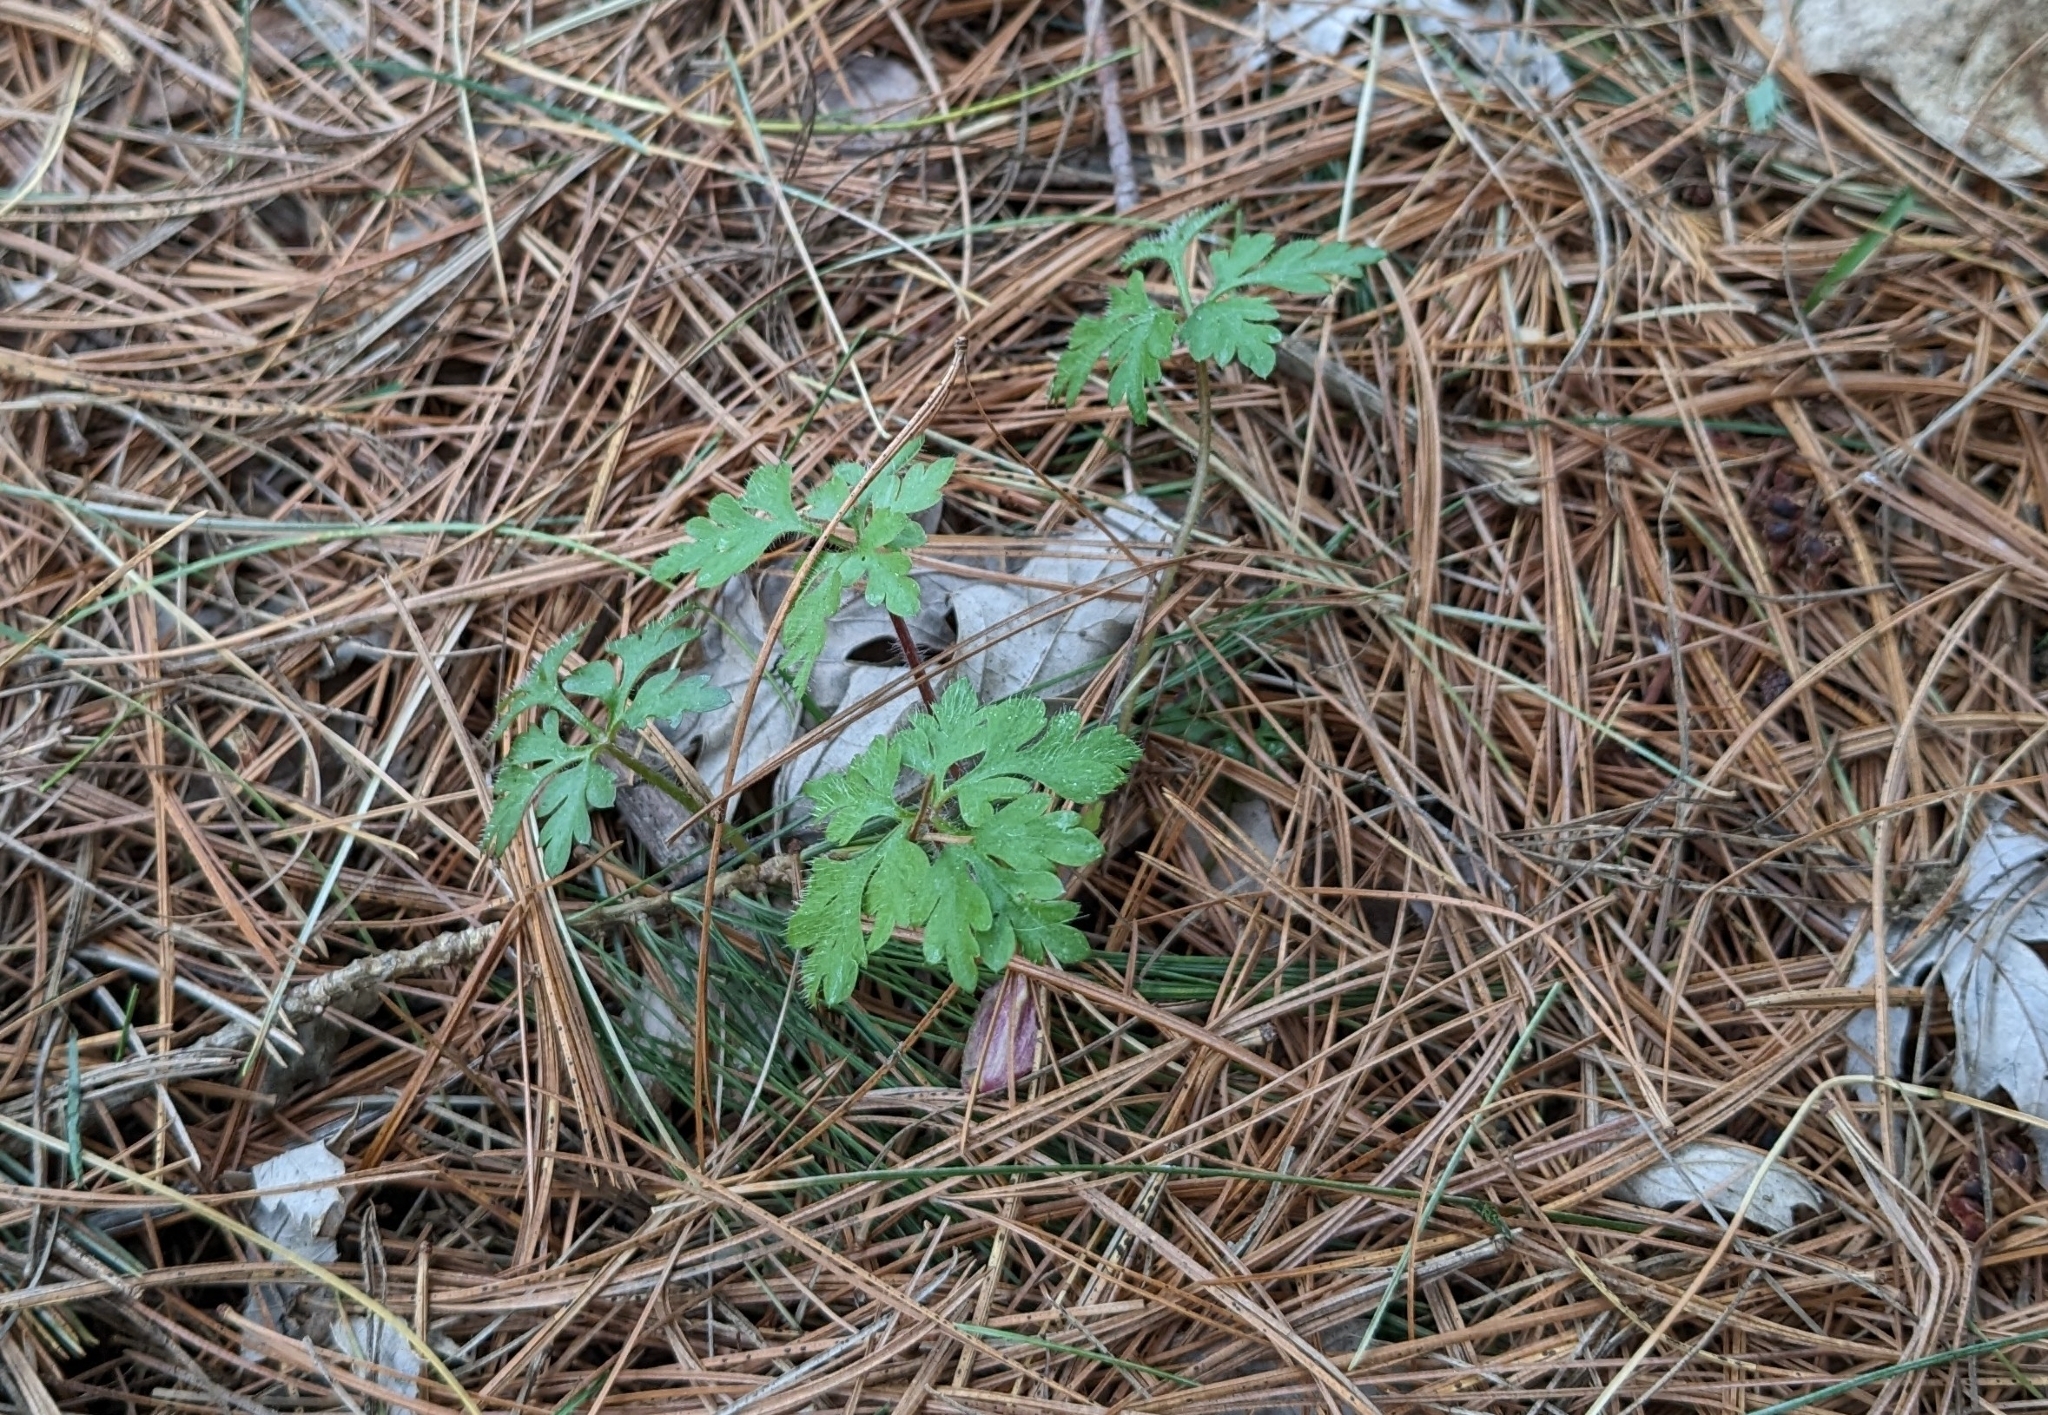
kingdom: Plantae
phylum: Tracheophyta
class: Magnoliopsida
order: Geraniales
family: Geraniaceae
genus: Geranium
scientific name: Geranium robertianum
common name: Herb-robert
